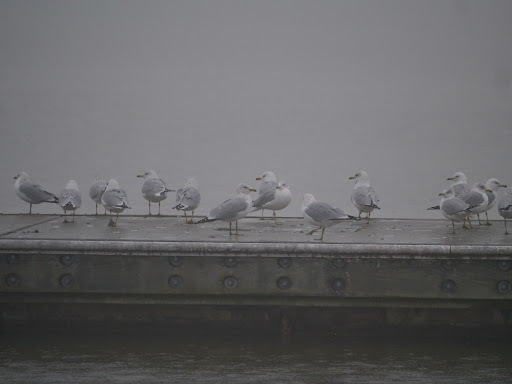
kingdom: Animalia
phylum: Chordata
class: Aves
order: Charadriiformes
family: Laridae
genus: Larus
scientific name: Larus delawarensis
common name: Ring-billed gull
